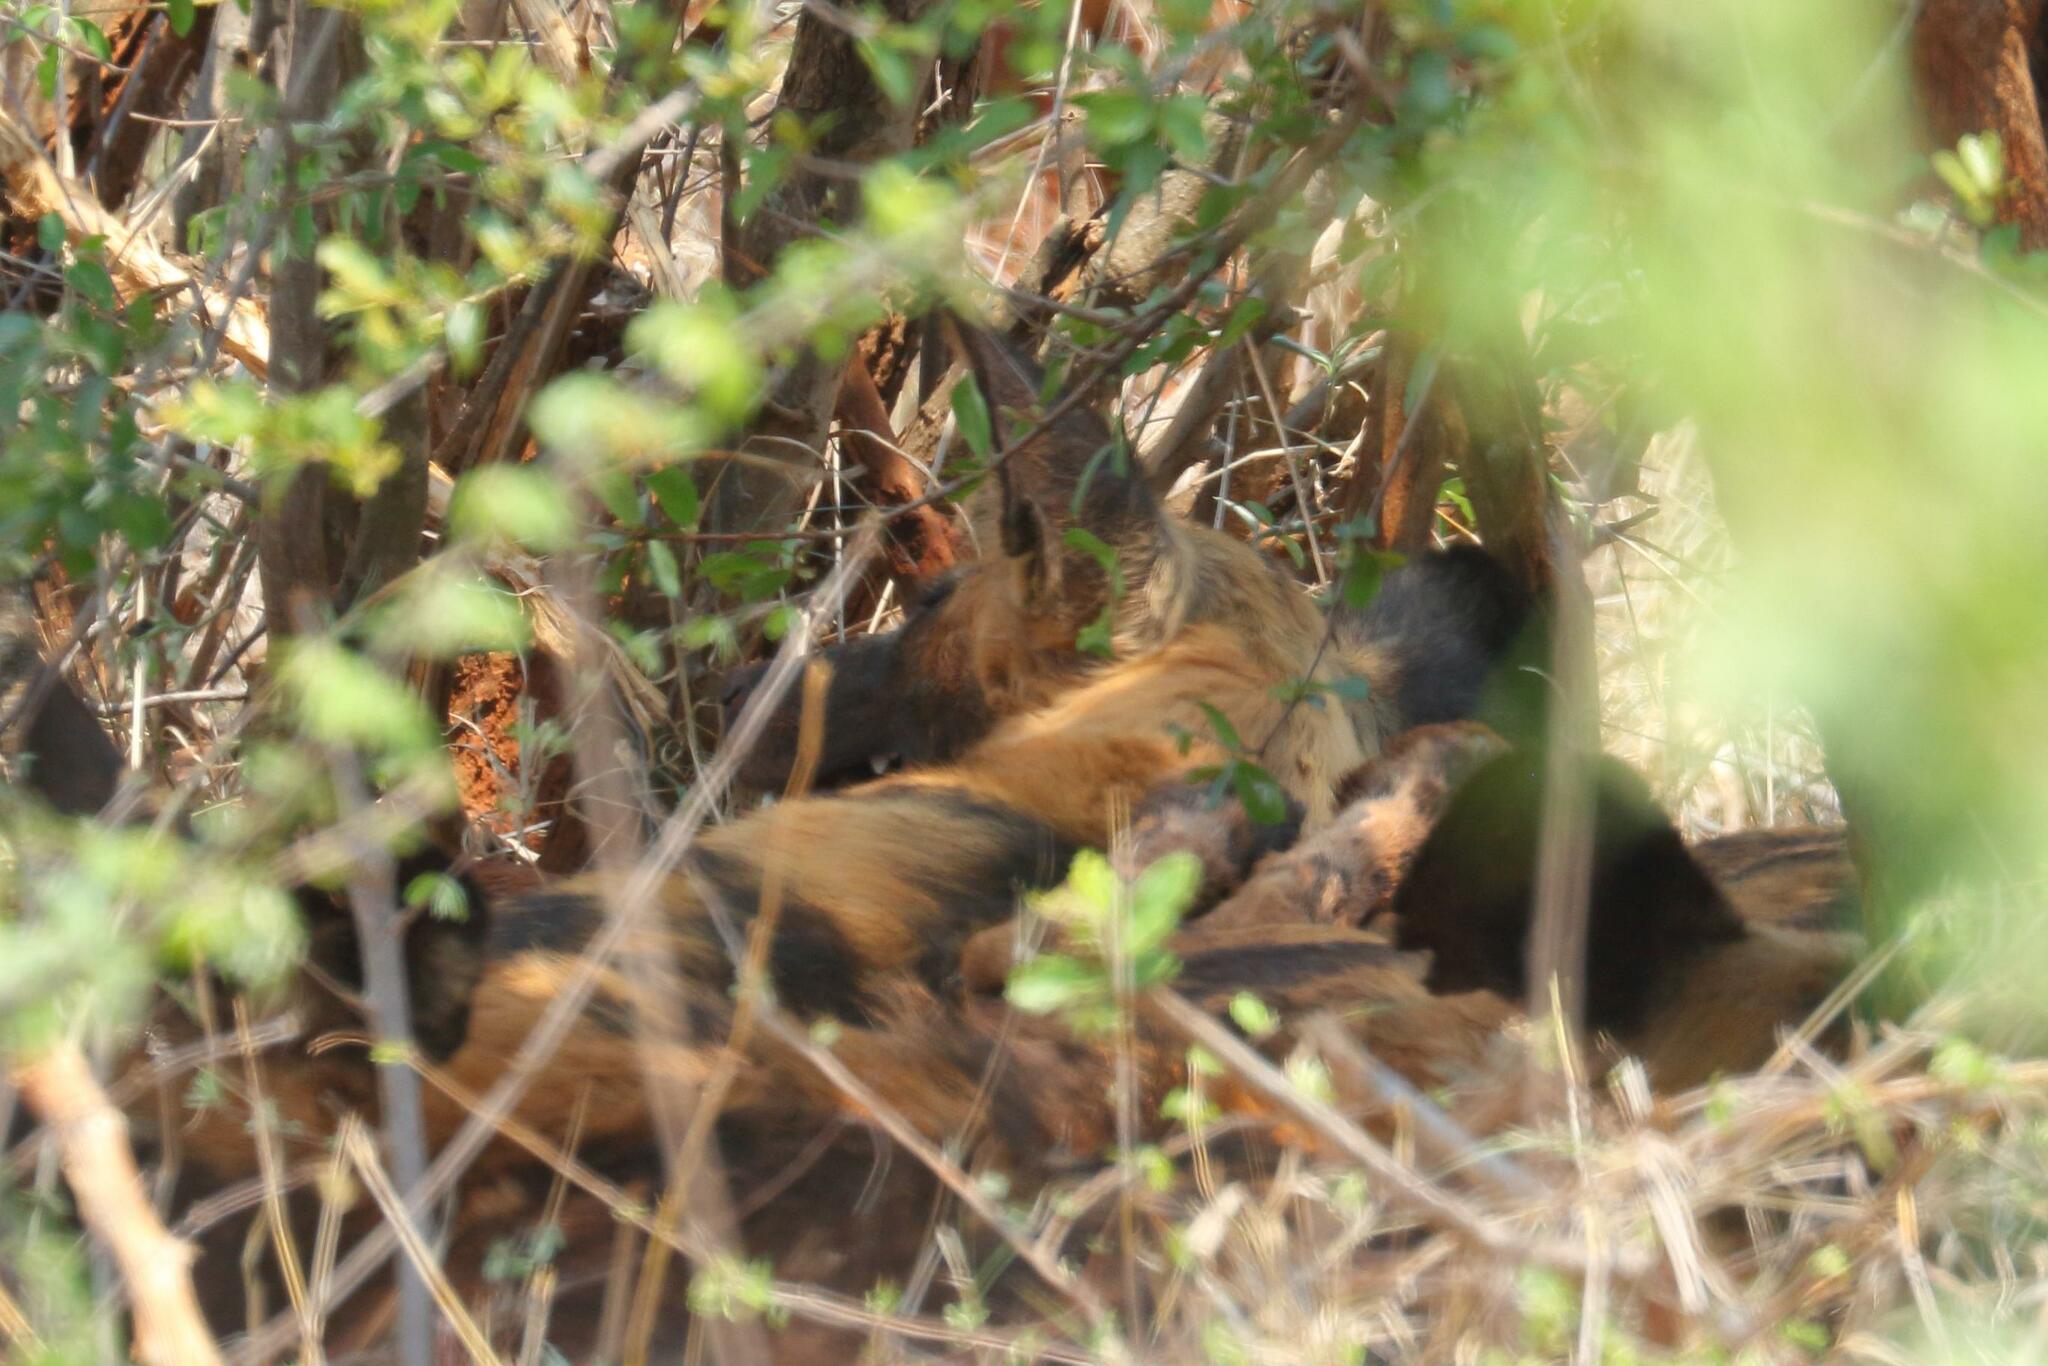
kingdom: Animalia
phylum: Chordata
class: Mammalia
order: Carnivora
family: Canidae
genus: Lycaon
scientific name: Lycaon pictus
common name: African wild dog
